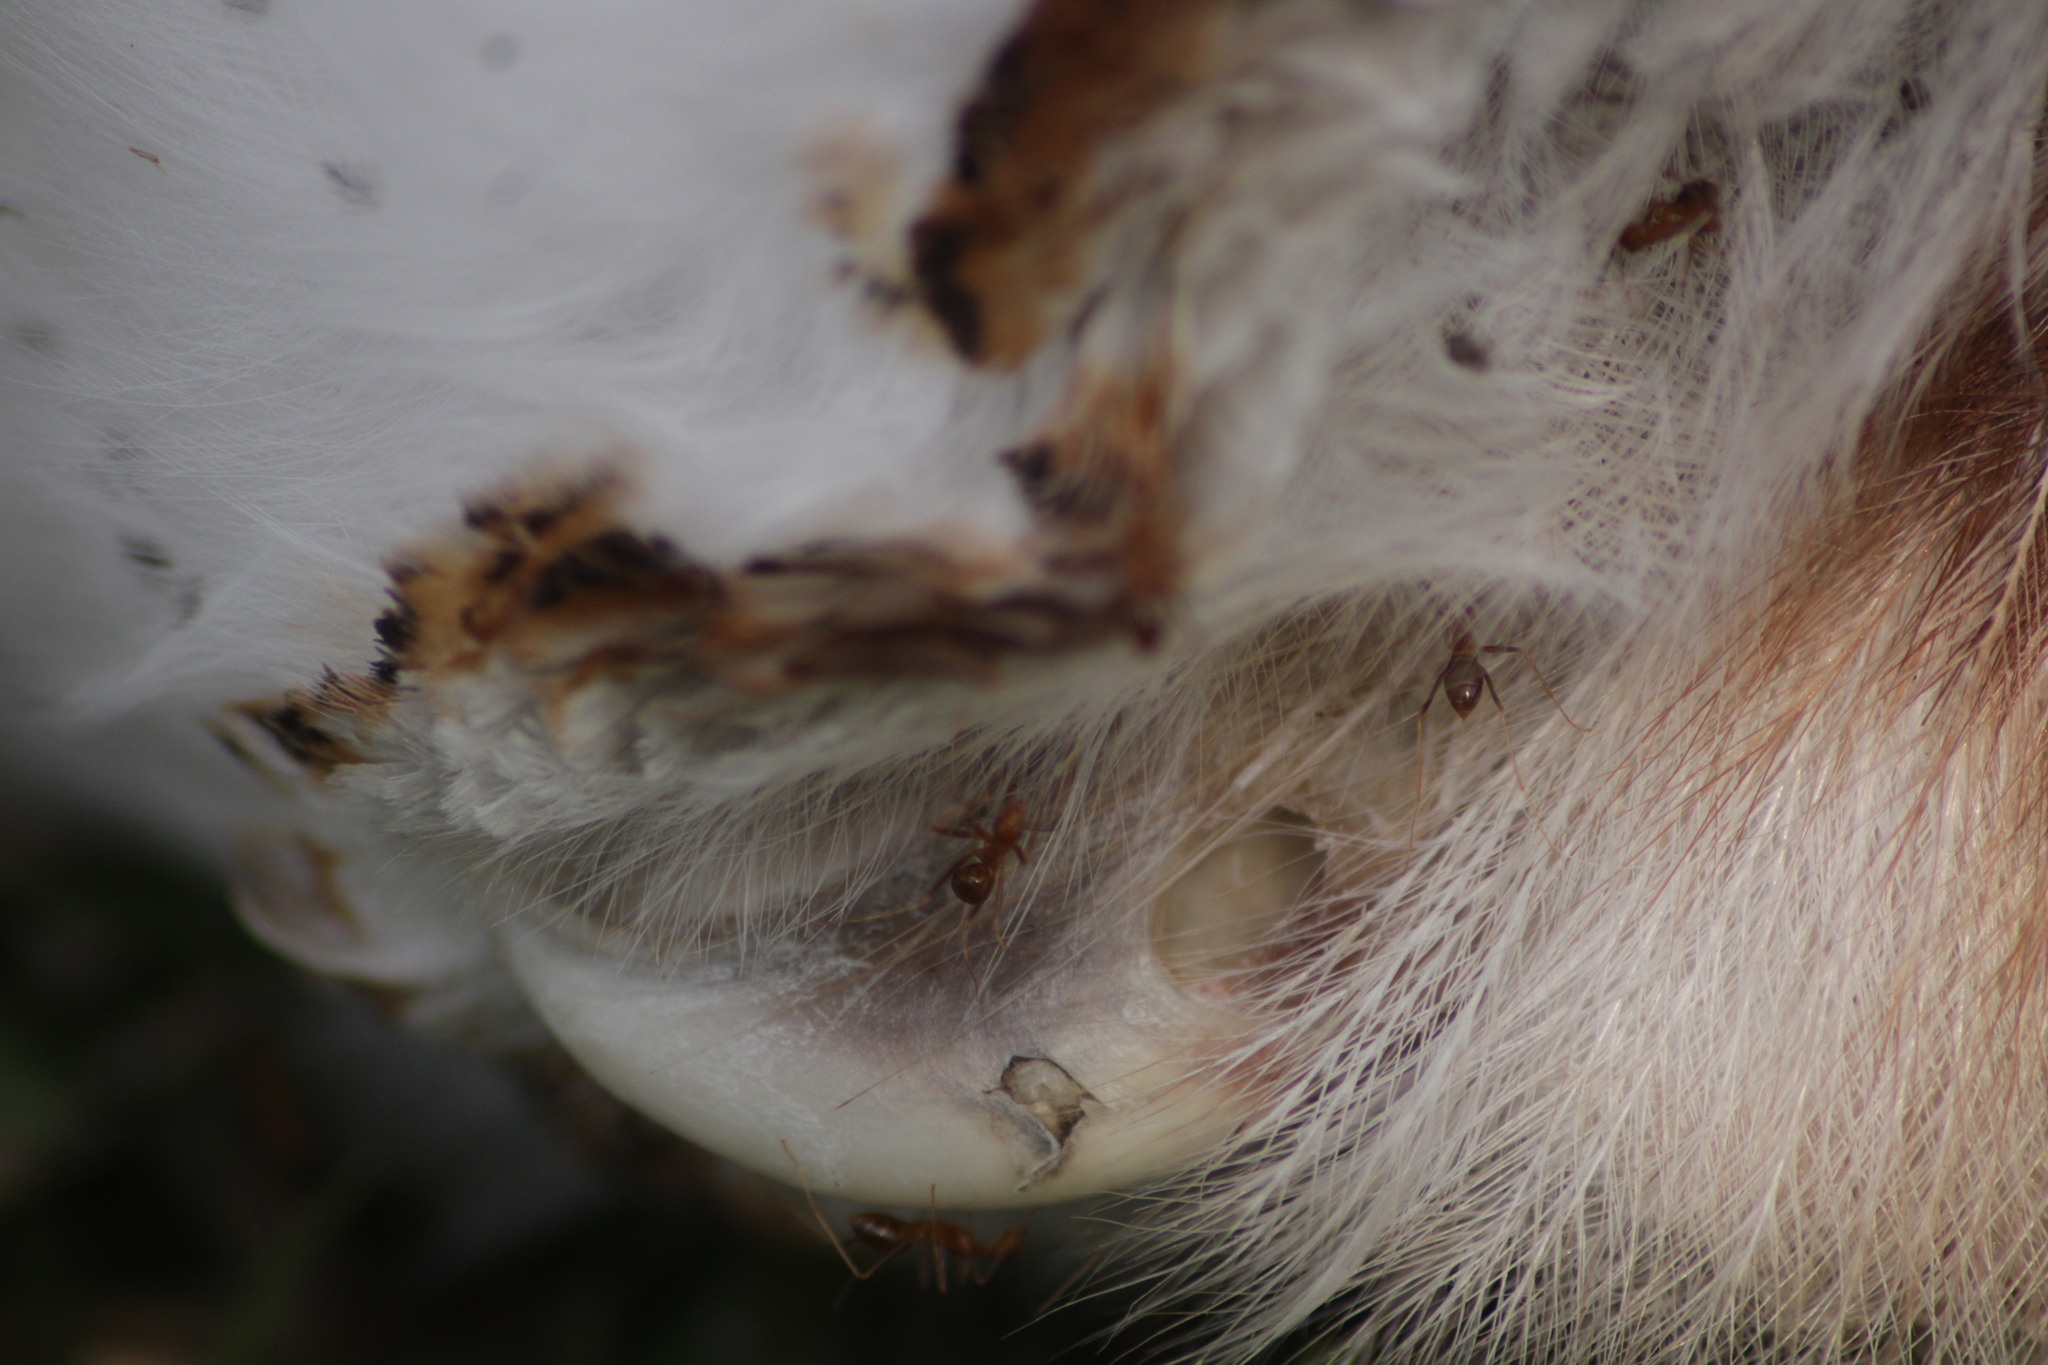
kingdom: Animalia
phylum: Arthropoda
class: Insecta
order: Hymenoptera
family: Formicidae
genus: Anoplolepis
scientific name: Anoplolepis gracilipes
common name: Ant
